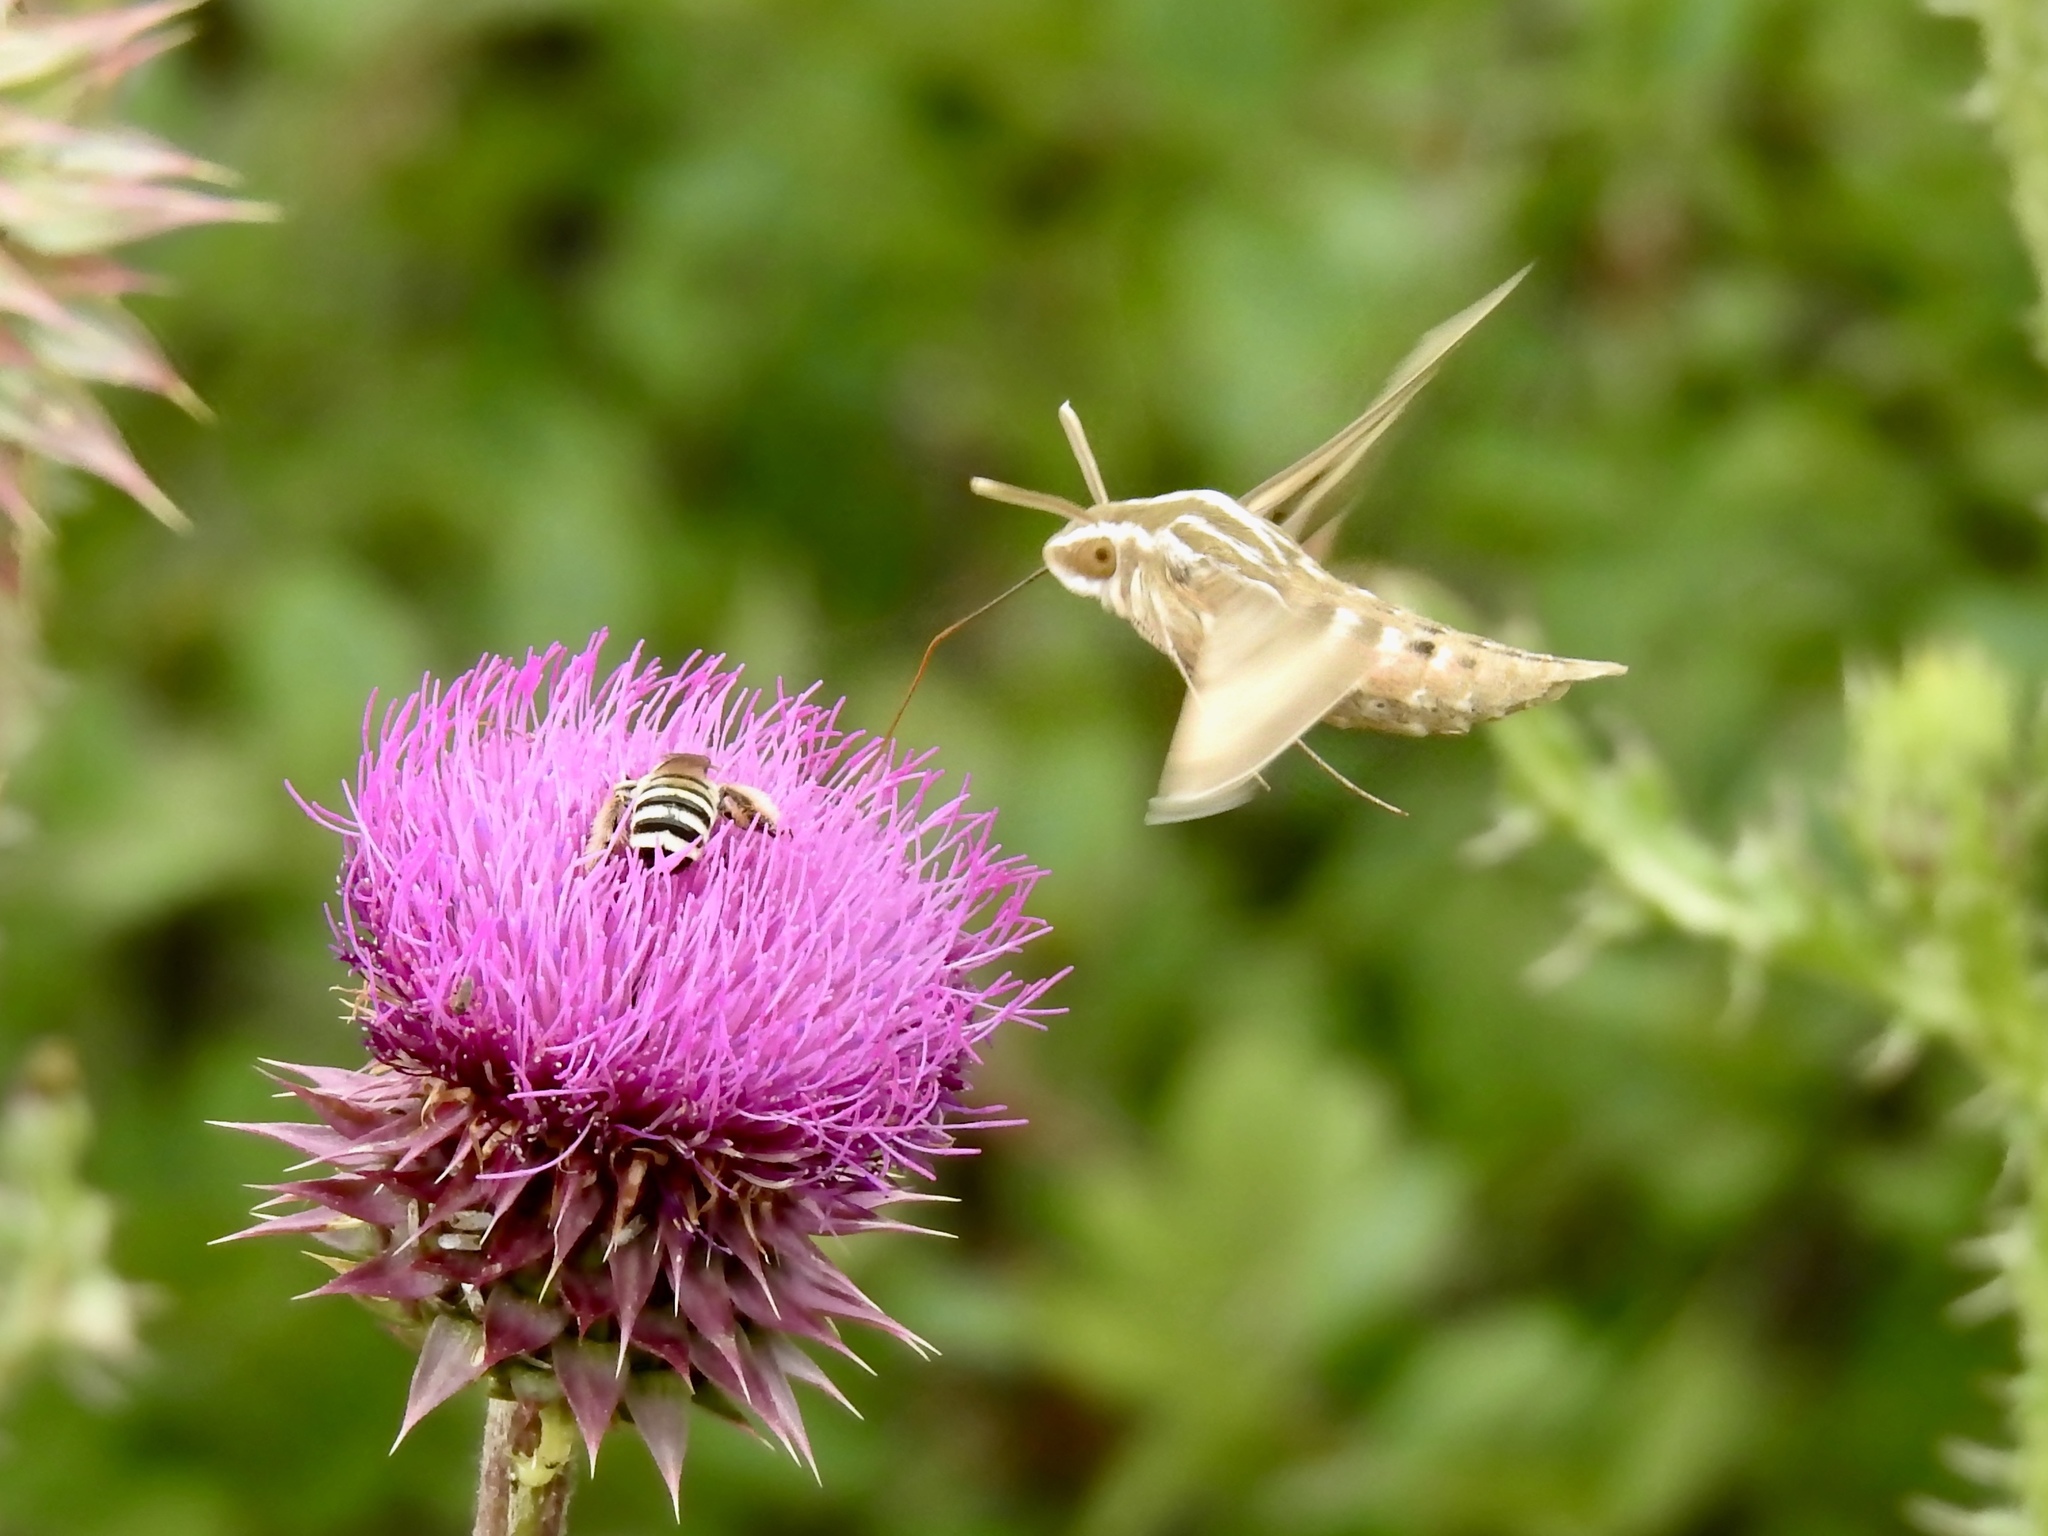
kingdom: Animalia
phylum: Arthropoda
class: Insecta
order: Lepidoptera
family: Sphingidae
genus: Hyles
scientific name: Hyles lineata
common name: White-lined sphinx
